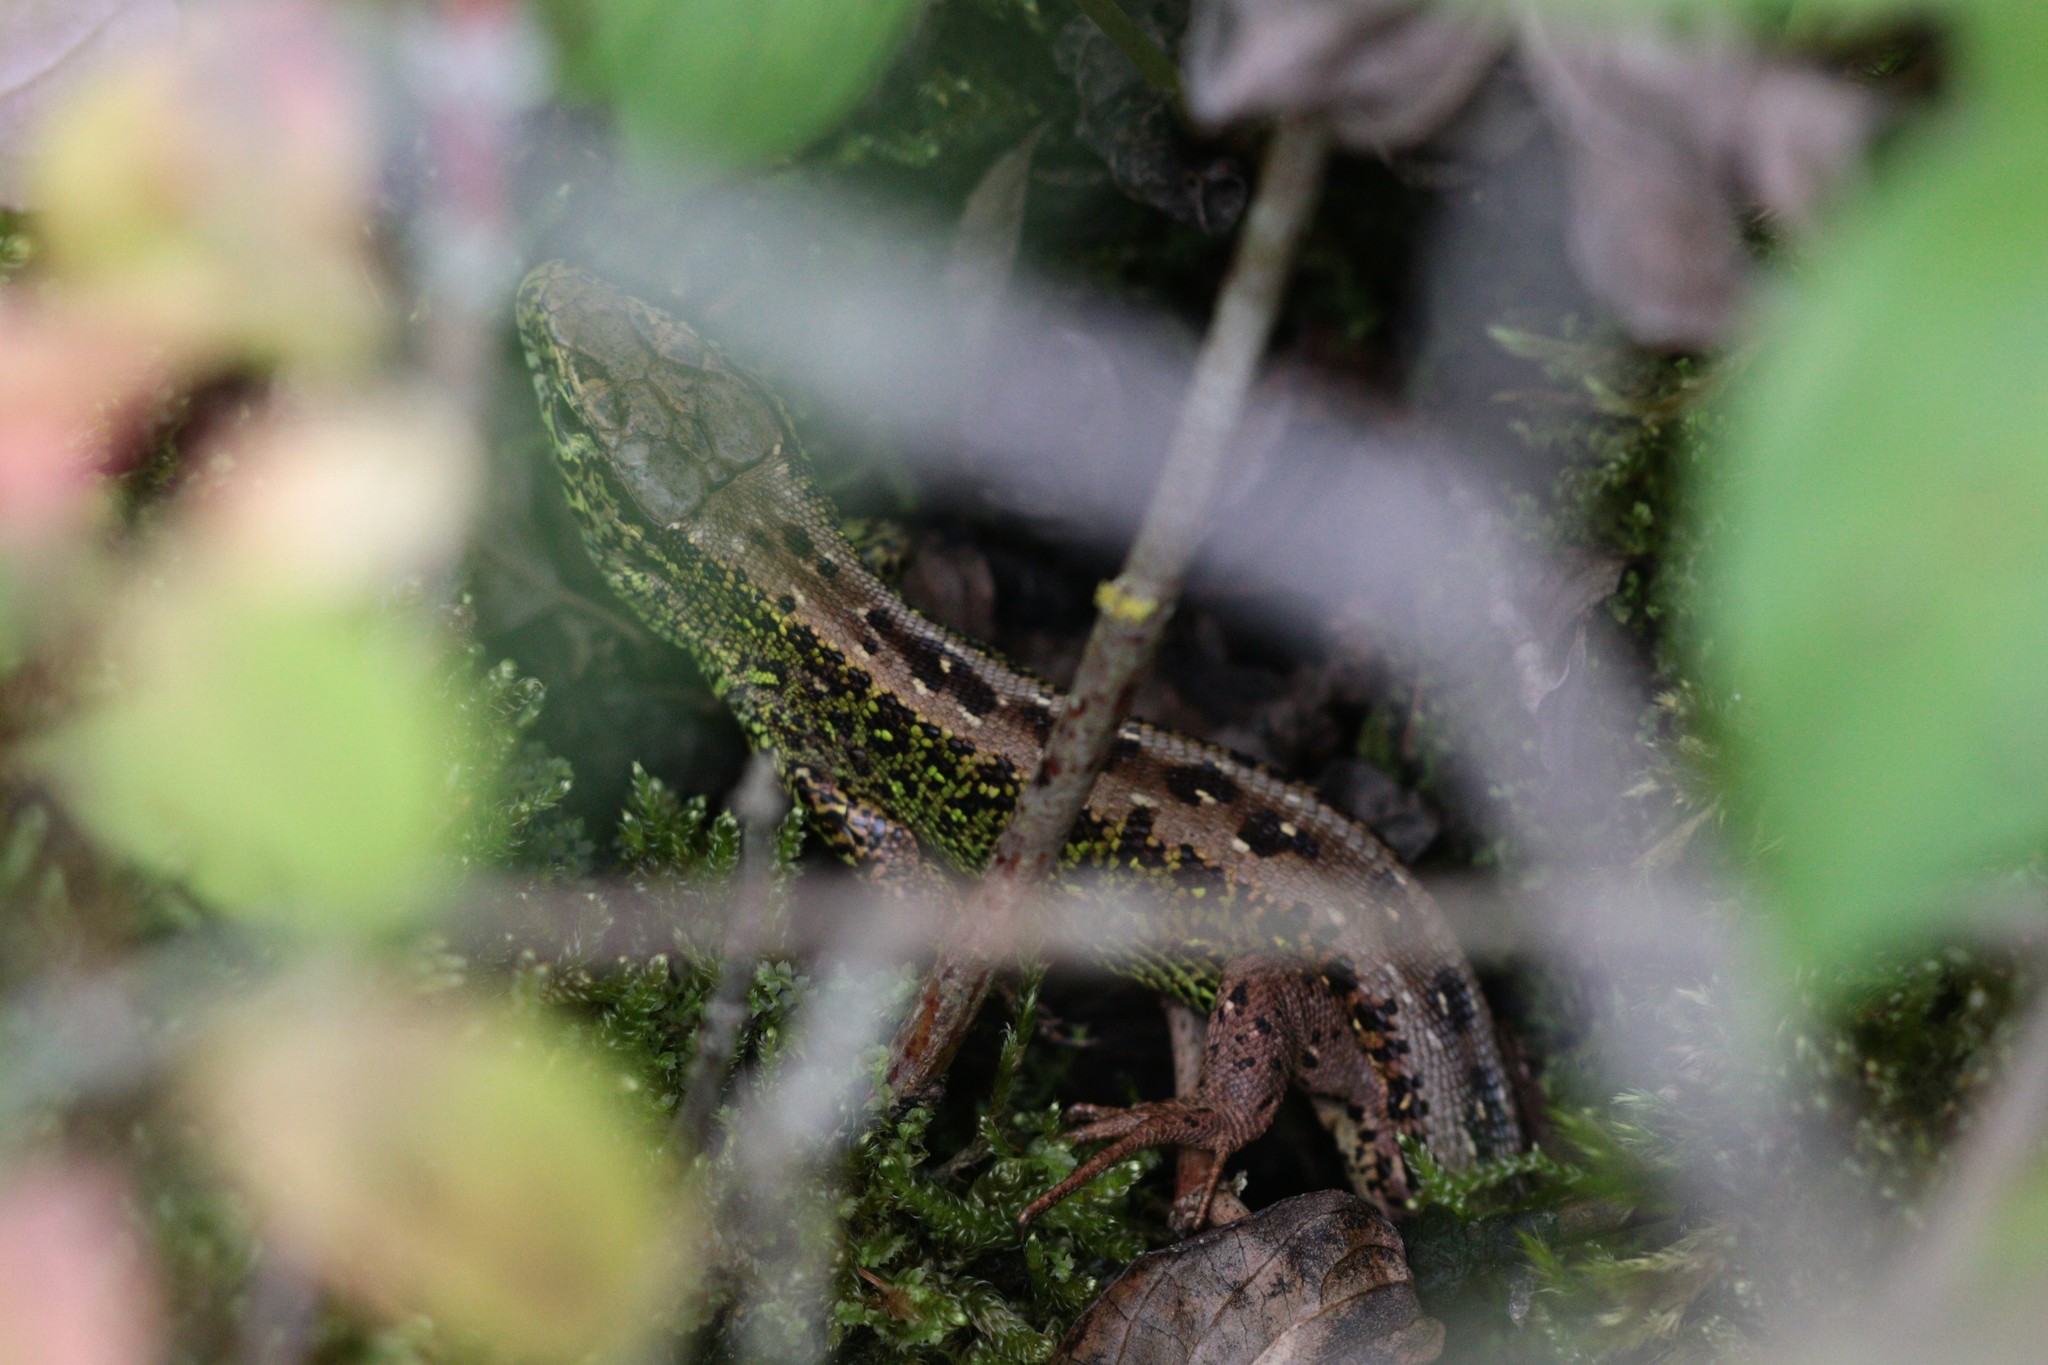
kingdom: Animalia
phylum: Chordata
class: Squamata
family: Lacertidae
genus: Lacerta
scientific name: Lacerta agilis
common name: Sand lizard
